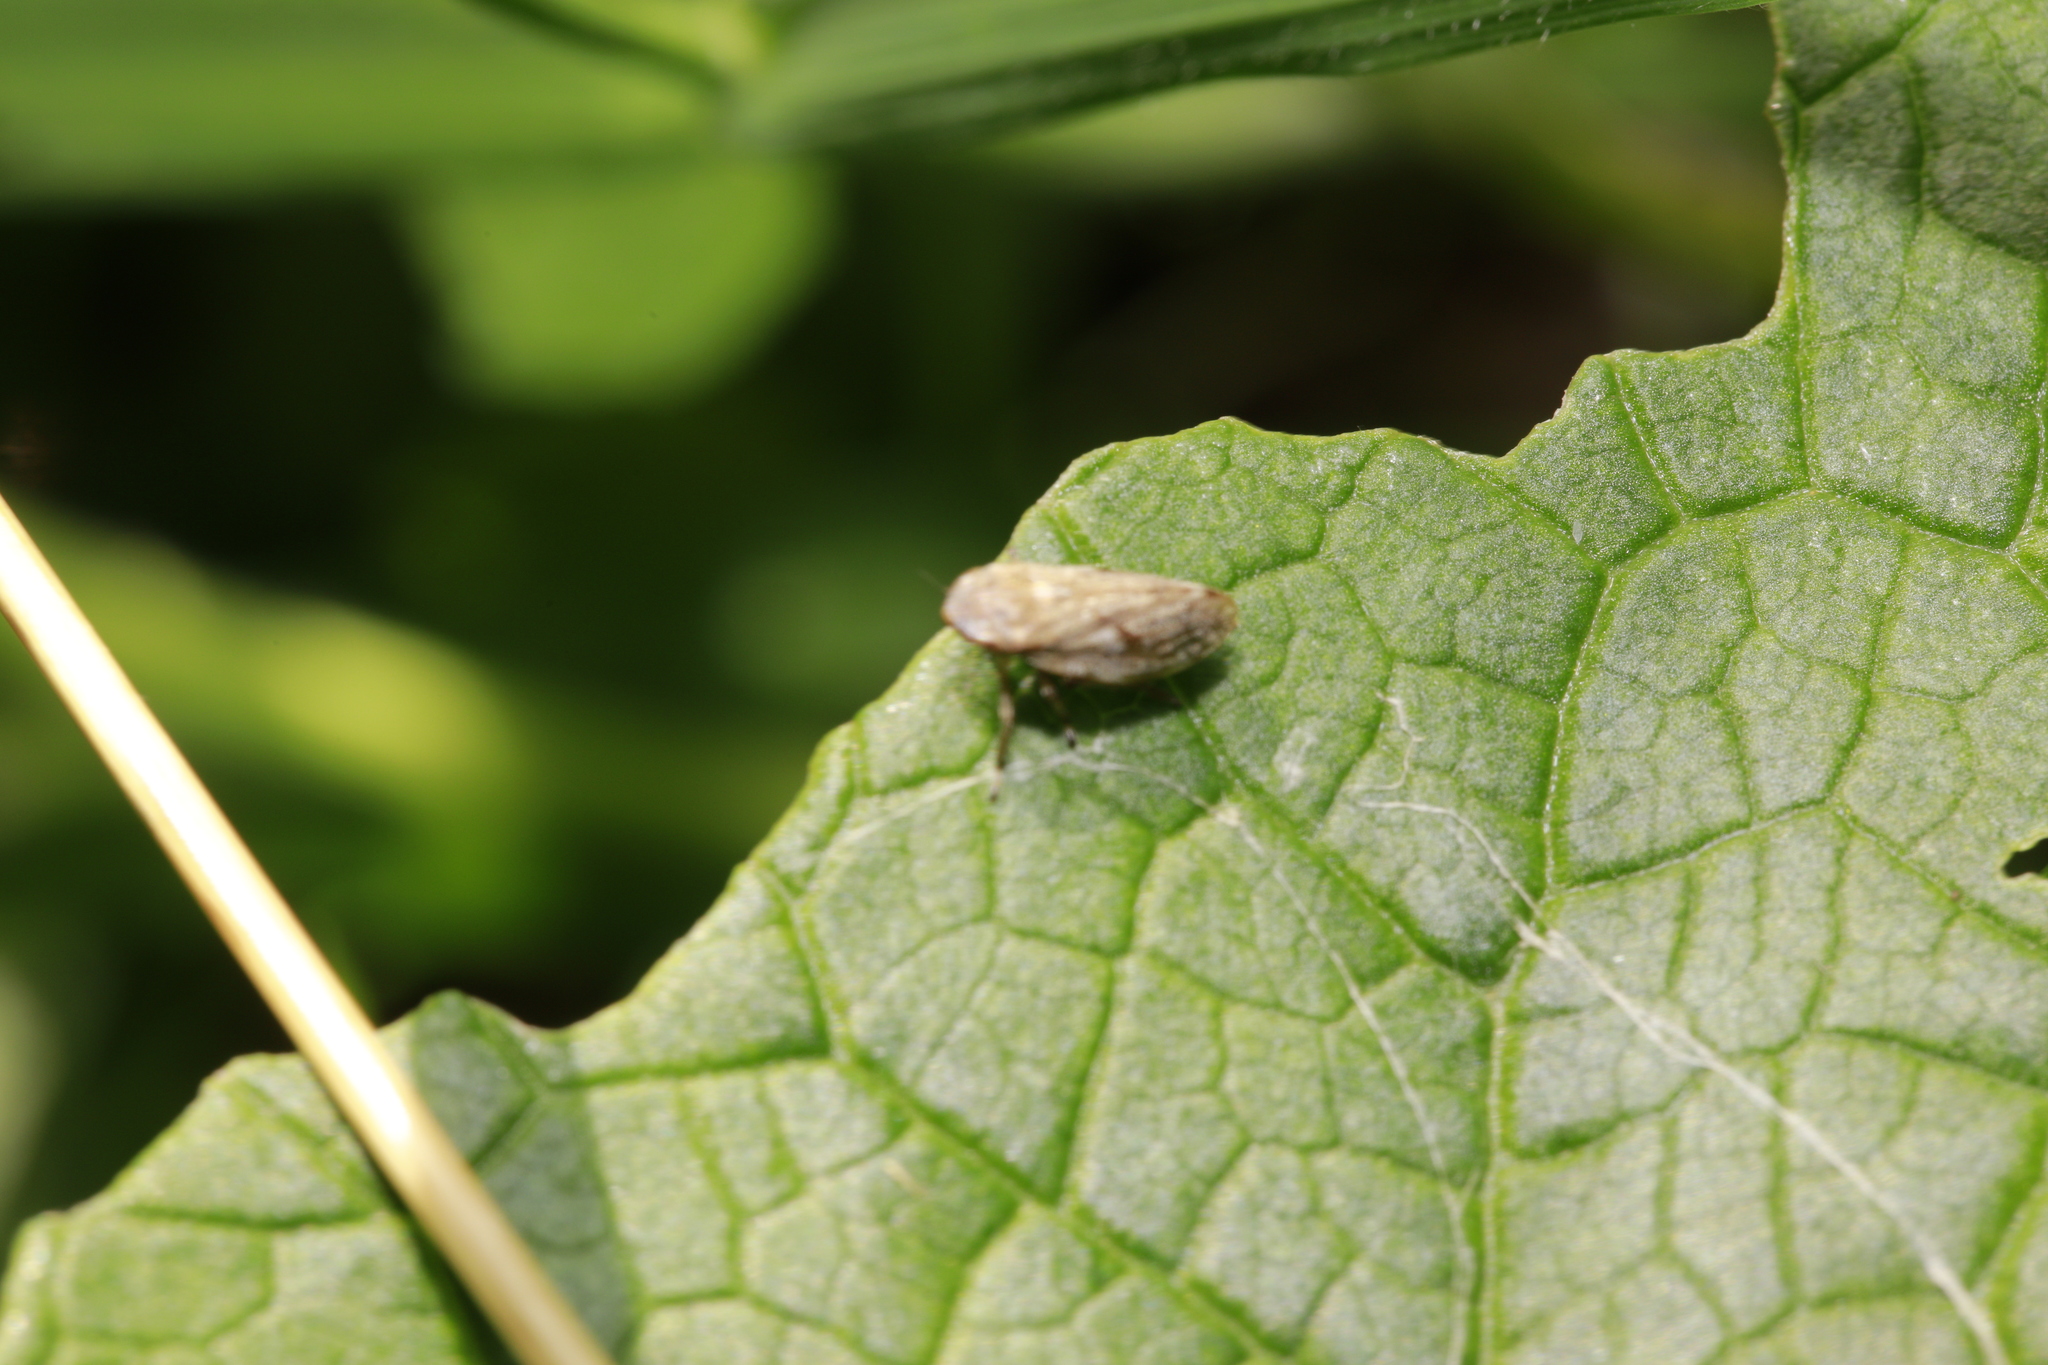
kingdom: Animalia
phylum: Arthropoda
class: Insecta
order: Hemiptera
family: Aphrophoridae
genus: Philaenus
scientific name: Philaenus spumarius
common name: Meadow spittlebug
